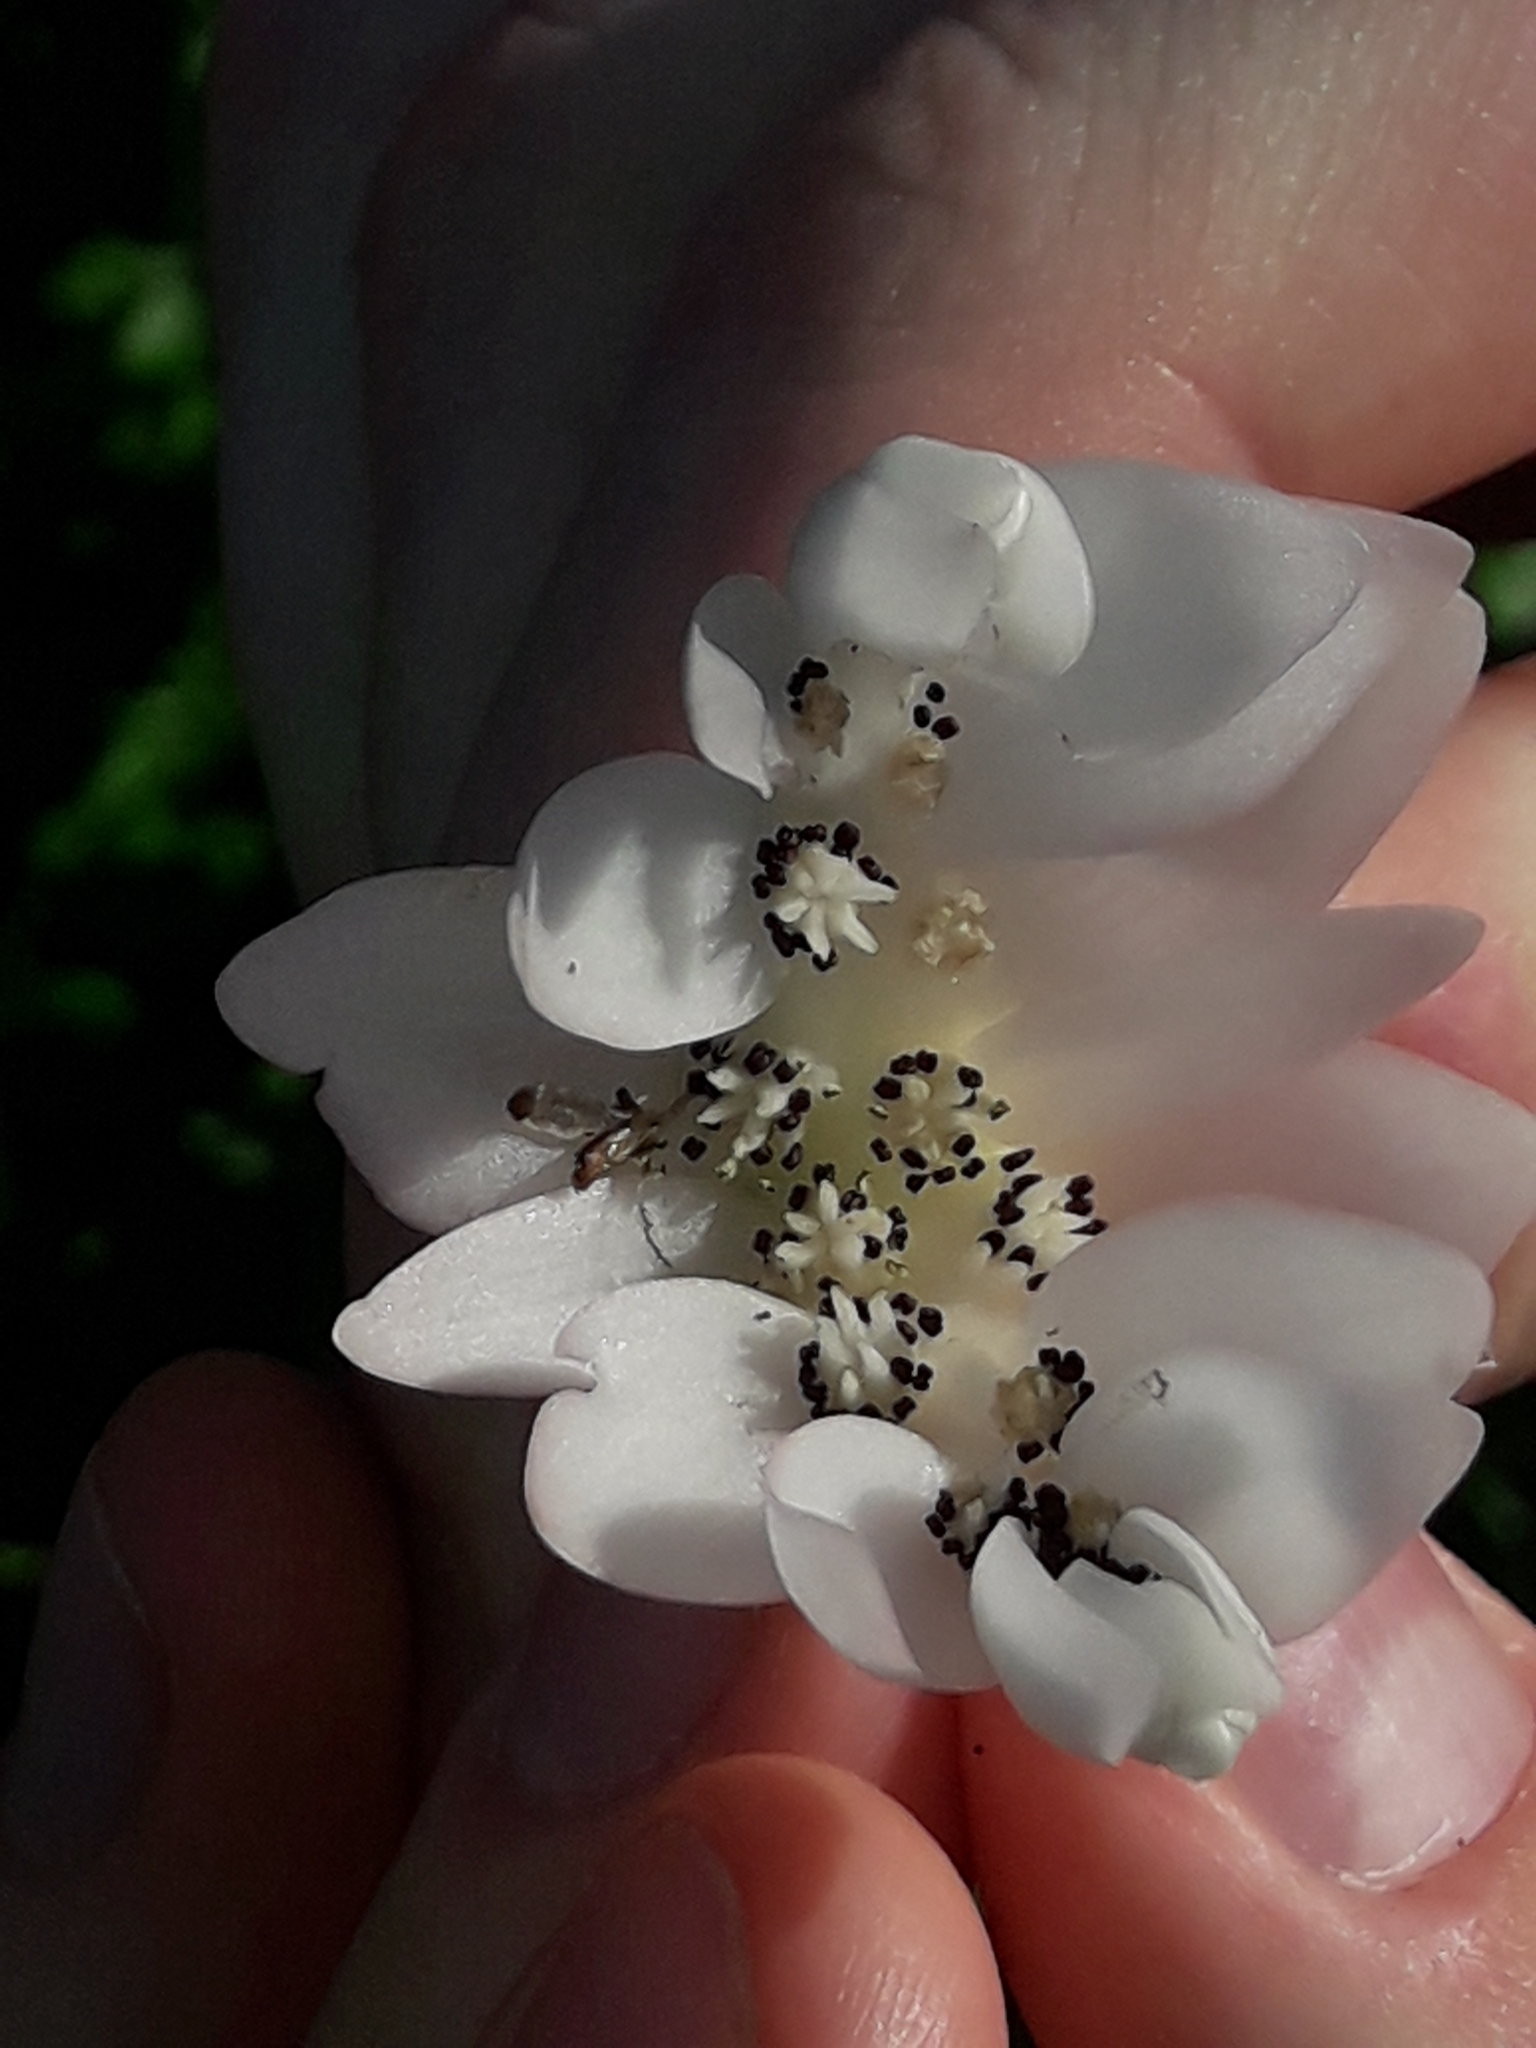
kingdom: Plantae
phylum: Tracheophyta
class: Liliopsida
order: Alismatales
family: Aponogetonaceae
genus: Aponogeton
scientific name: Aponogeton distachyos
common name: Cape-pondweed
